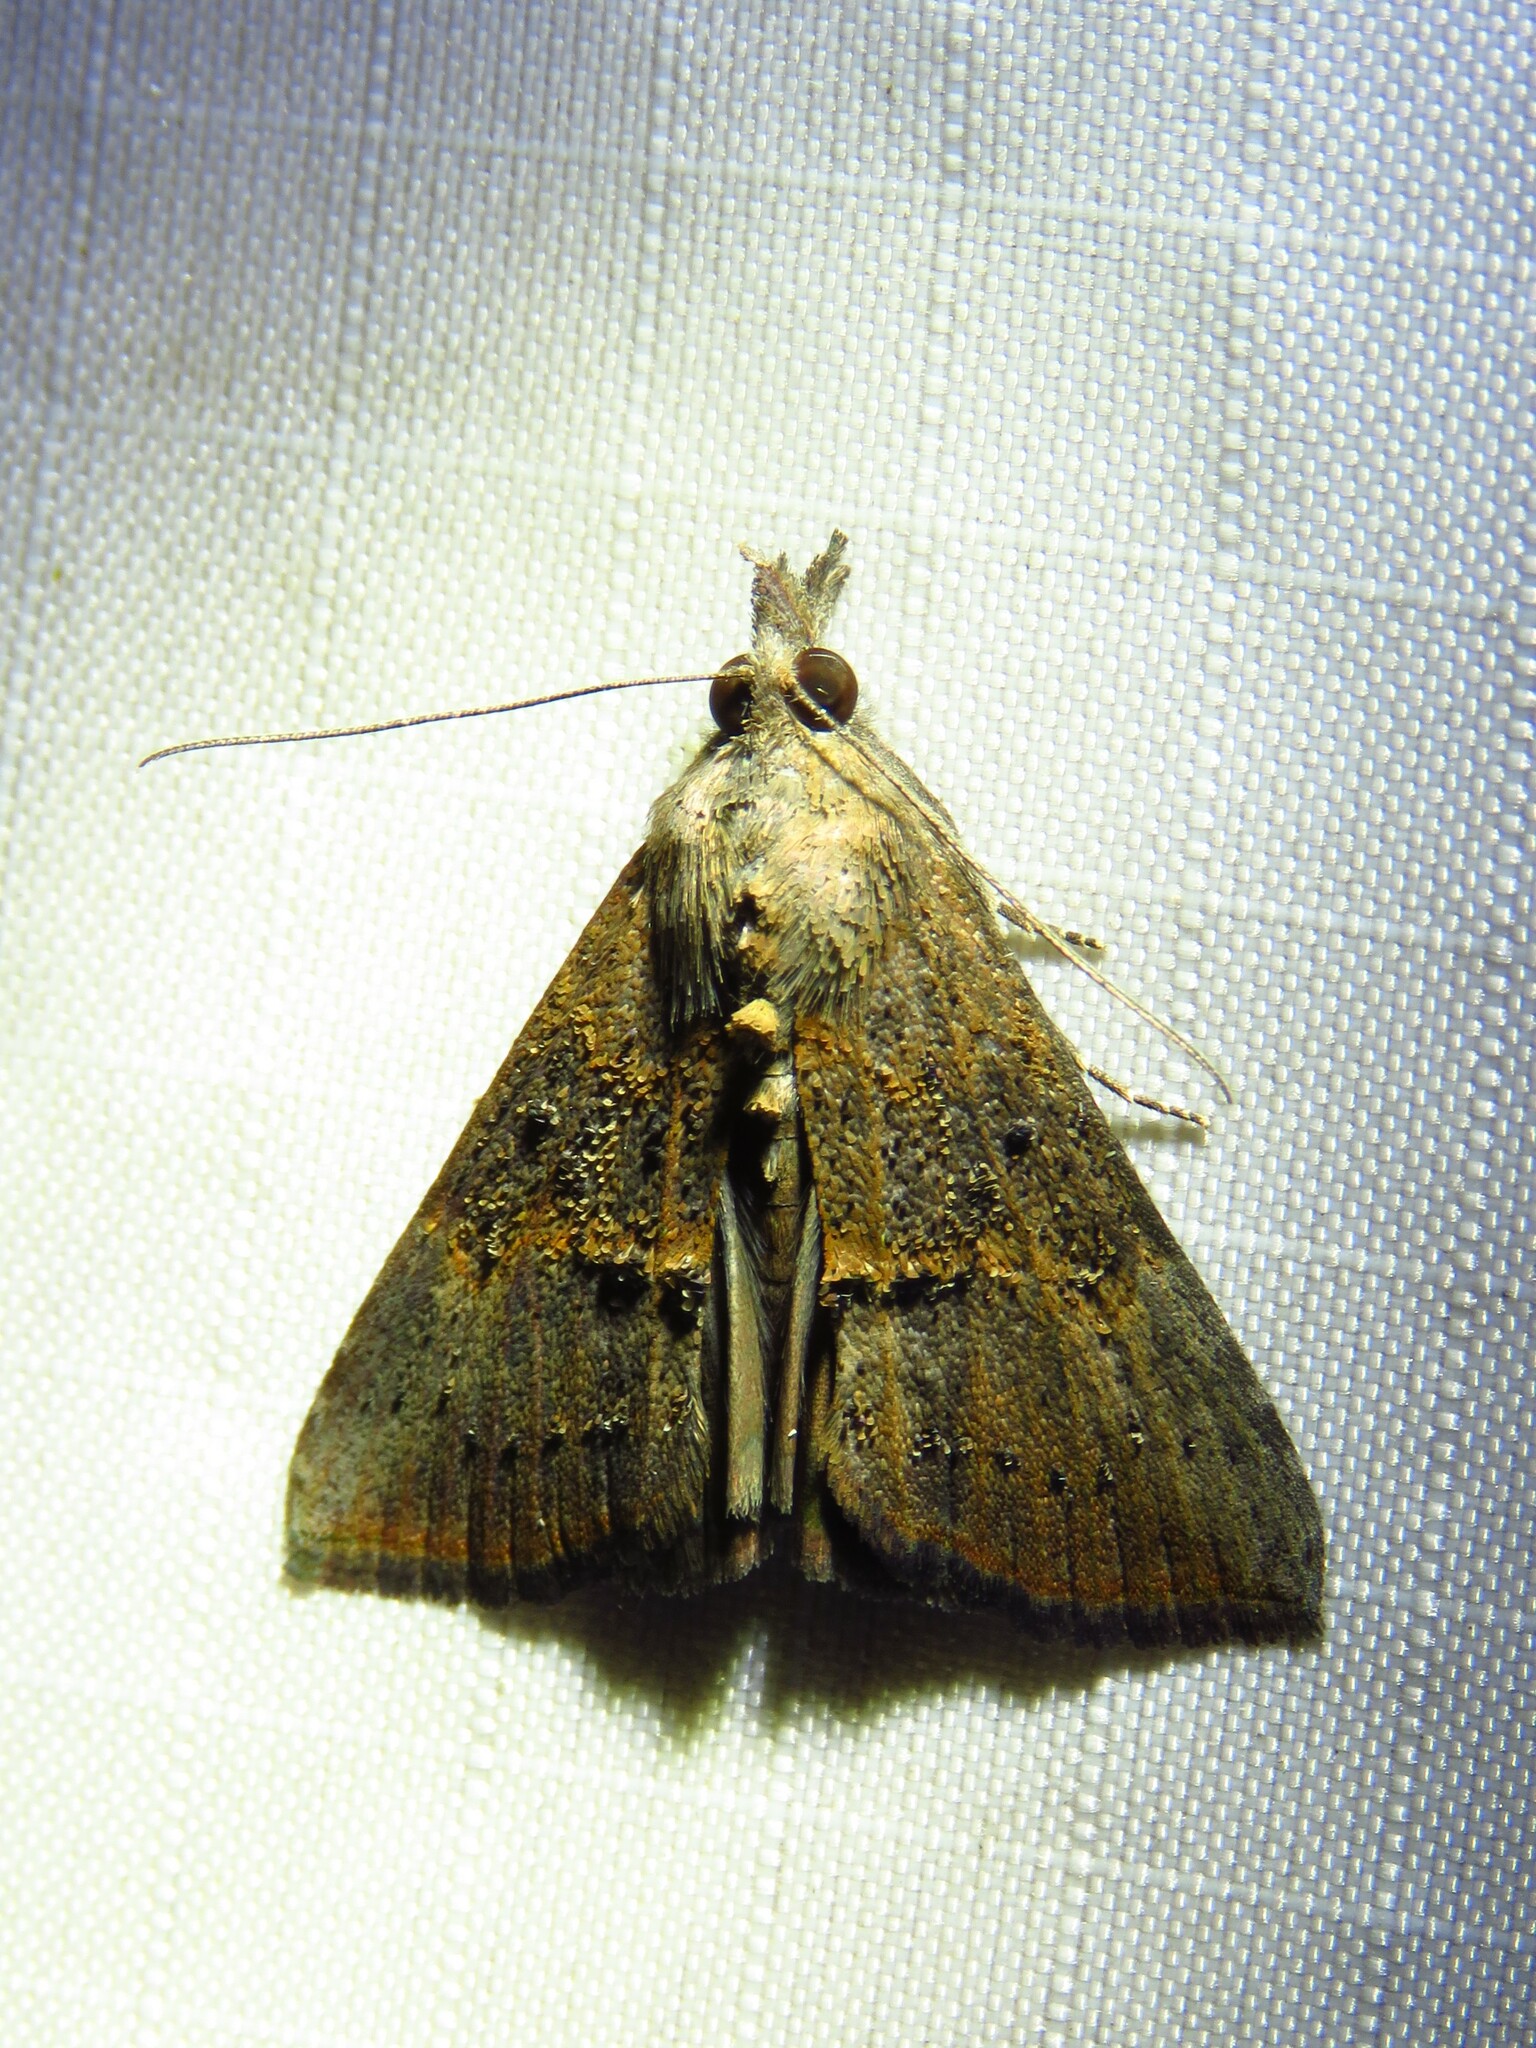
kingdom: Animalia
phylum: Arthropoda
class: Insecta
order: Lepidoptera
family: Erebidae
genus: Hypena
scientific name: Hypena scabra
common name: Green cloverworm
